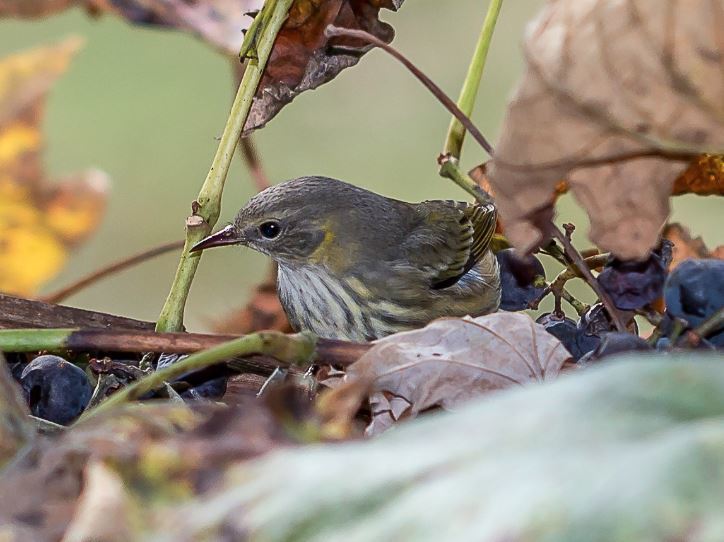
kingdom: Animalia
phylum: Chordata
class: Aves
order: Passeriformes
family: Parulidae
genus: Setophaga
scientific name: Setophaga tigrina
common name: Cape may warbler
